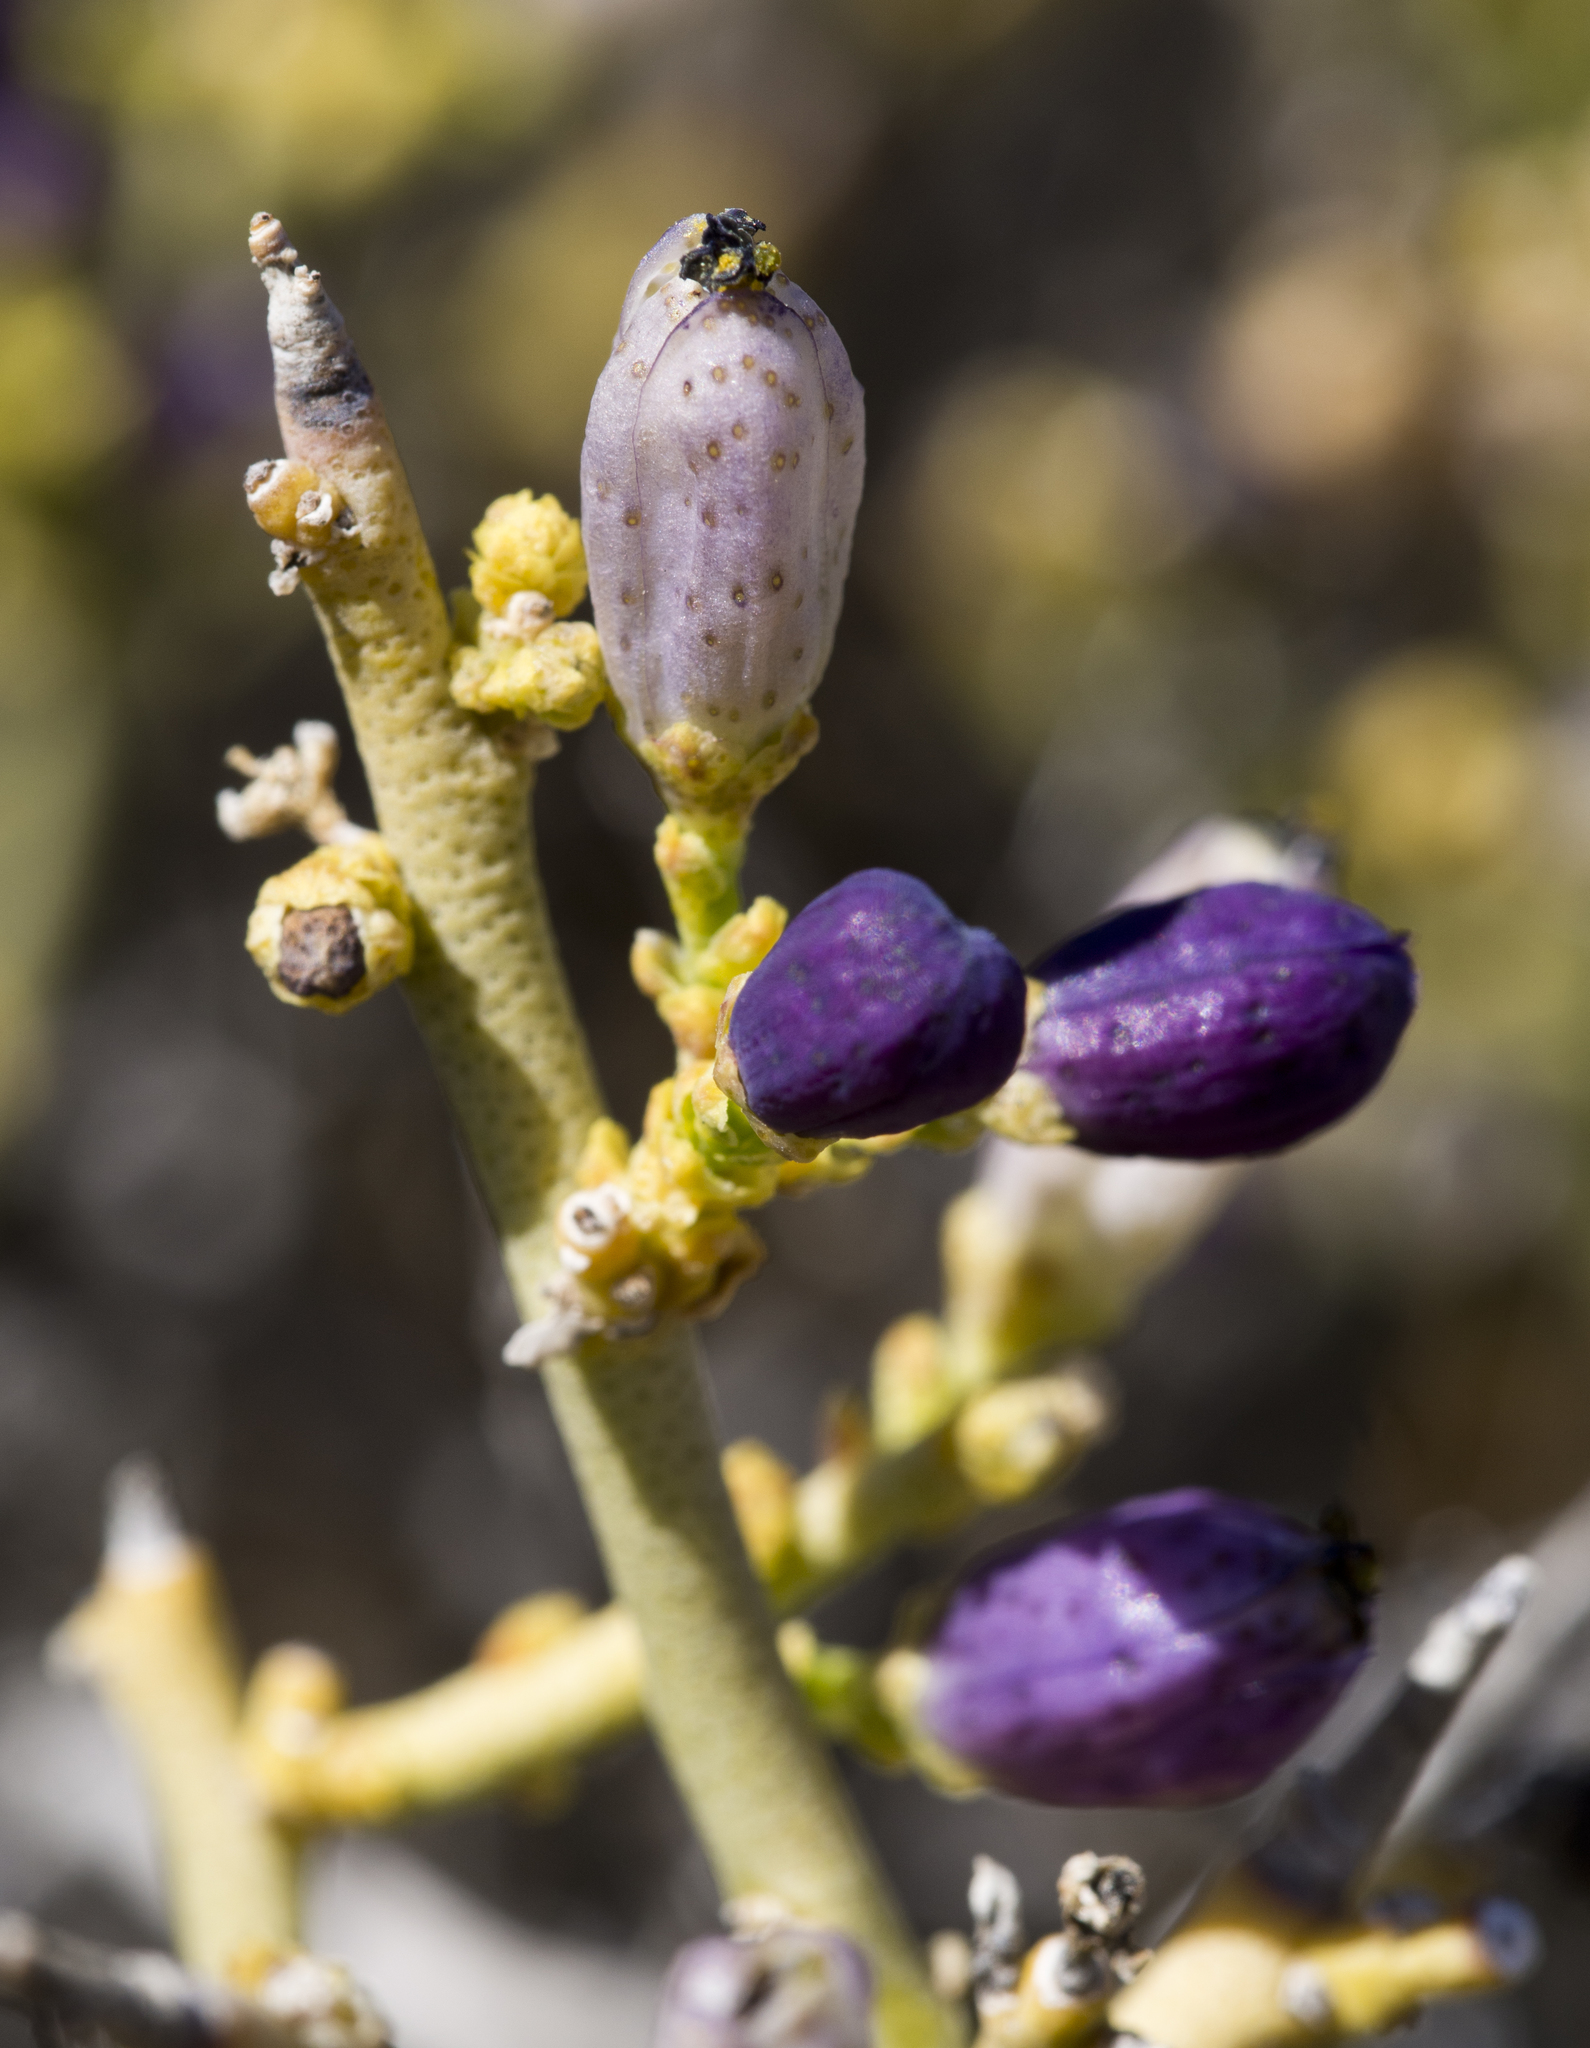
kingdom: Plantae
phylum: Tracheophyta
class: Magnoliopsida
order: Sapindales
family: Rutaceae
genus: Thamnosma
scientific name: Thamnosma montana
